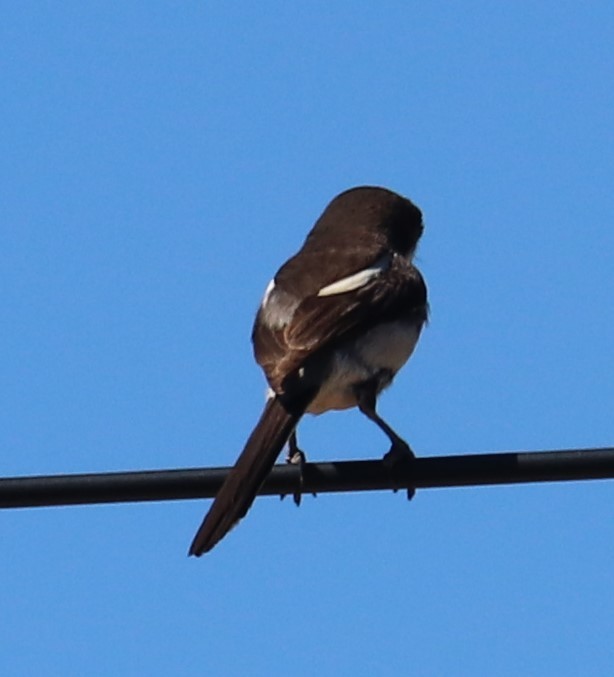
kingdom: Animalia
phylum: Chordata
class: Aves
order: Passeriformes
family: Laniidae
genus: Lanius
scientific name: Lanius collaris
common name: Southern fiscal
